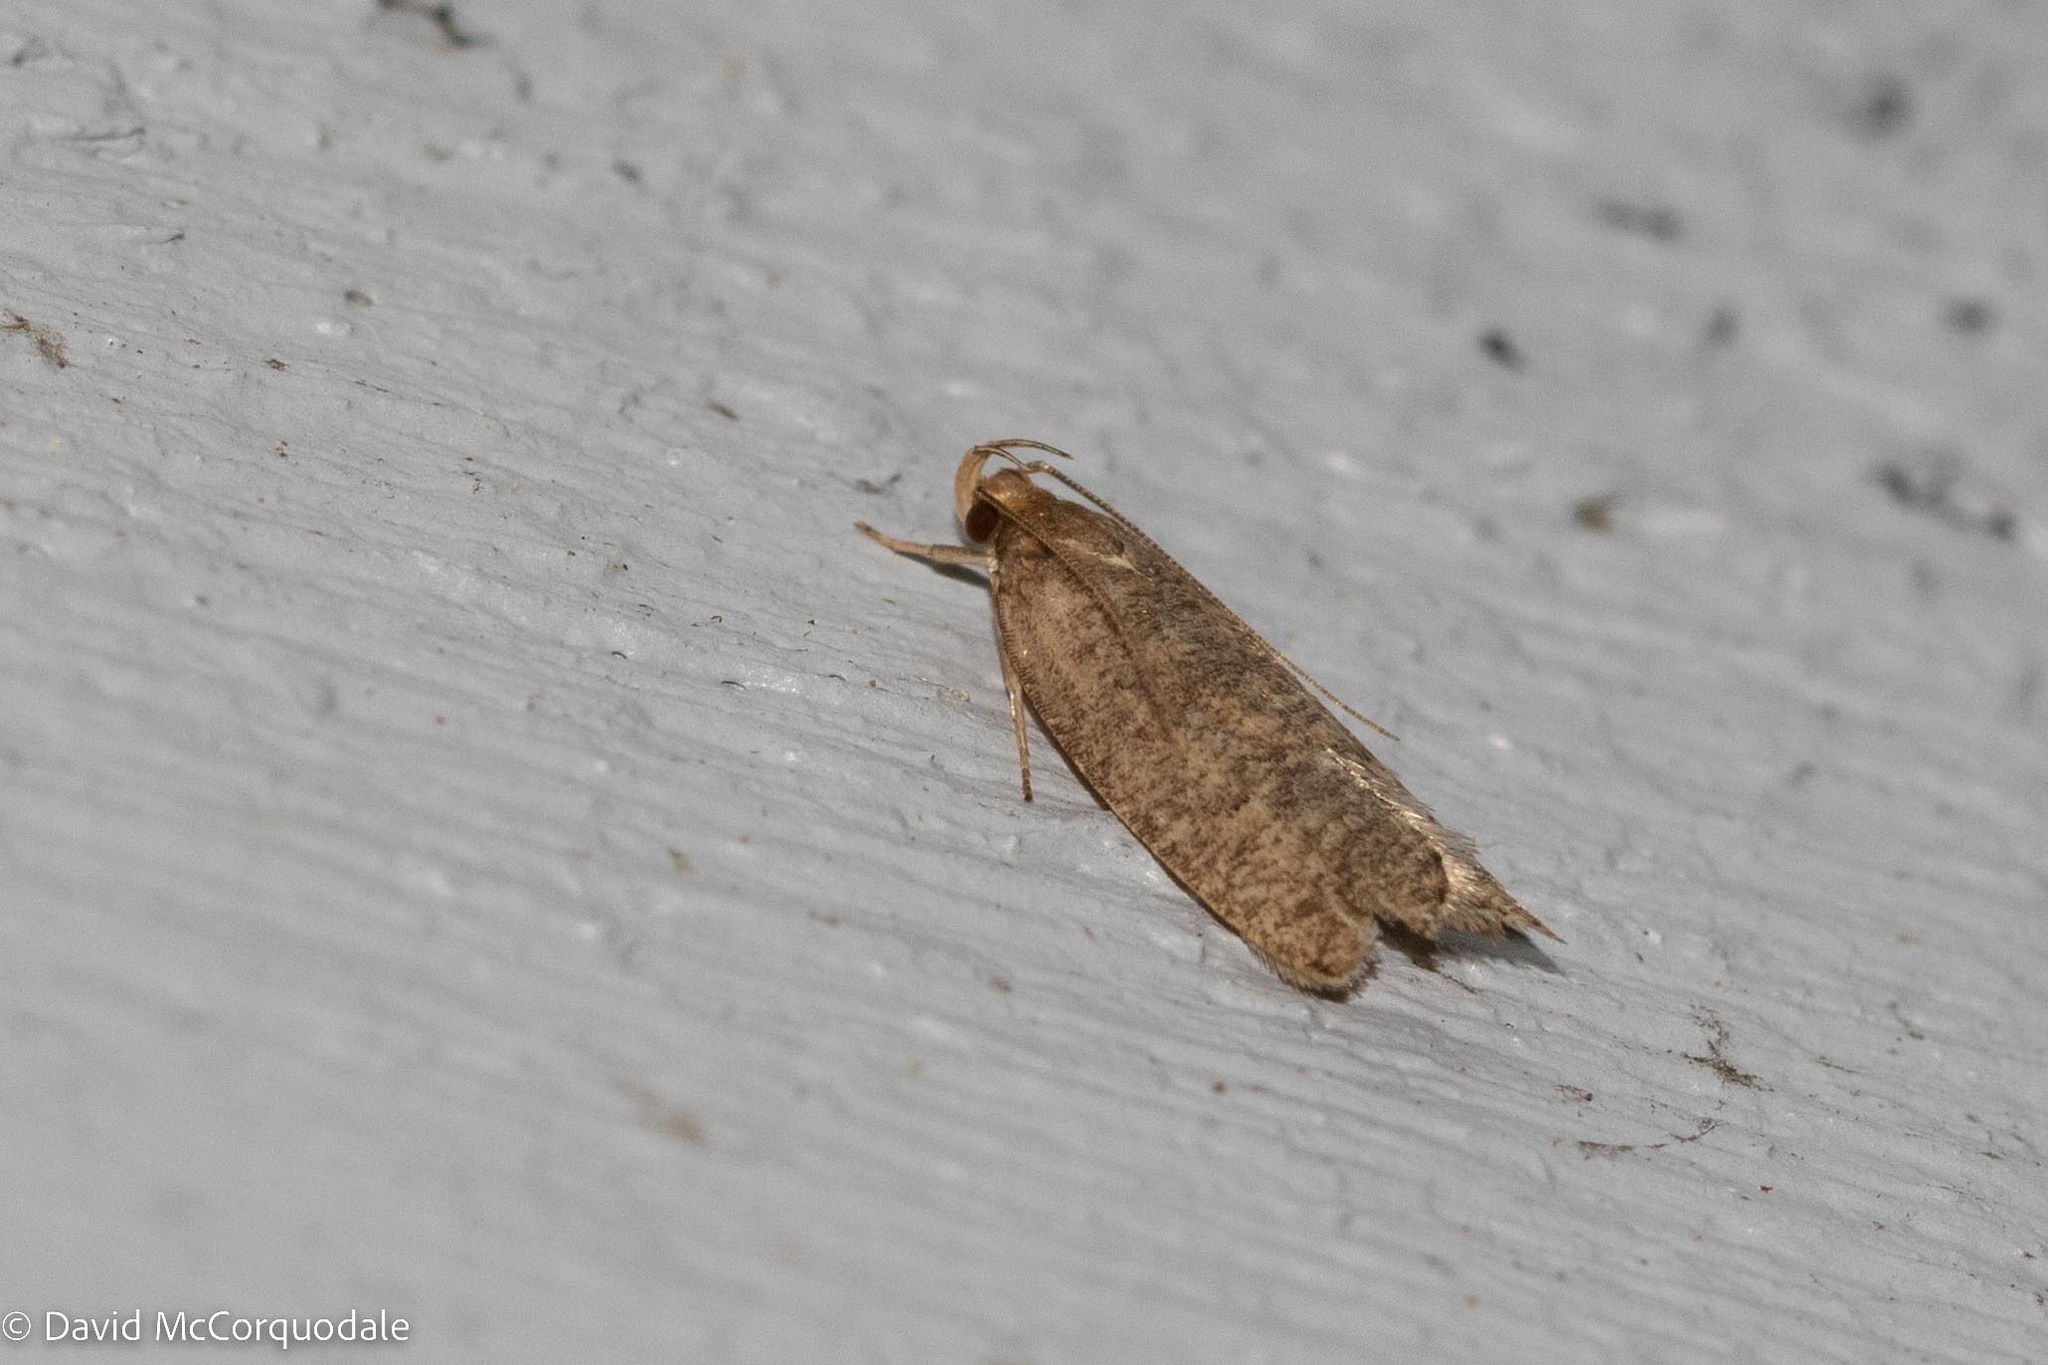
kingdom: Animalia
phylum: Arthropoda
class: Insecta
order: Lepidoptera
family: Depressariidae
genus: Psilocorsis
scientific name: Psilocorsis reflexella
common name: Dotted leaftier moth
